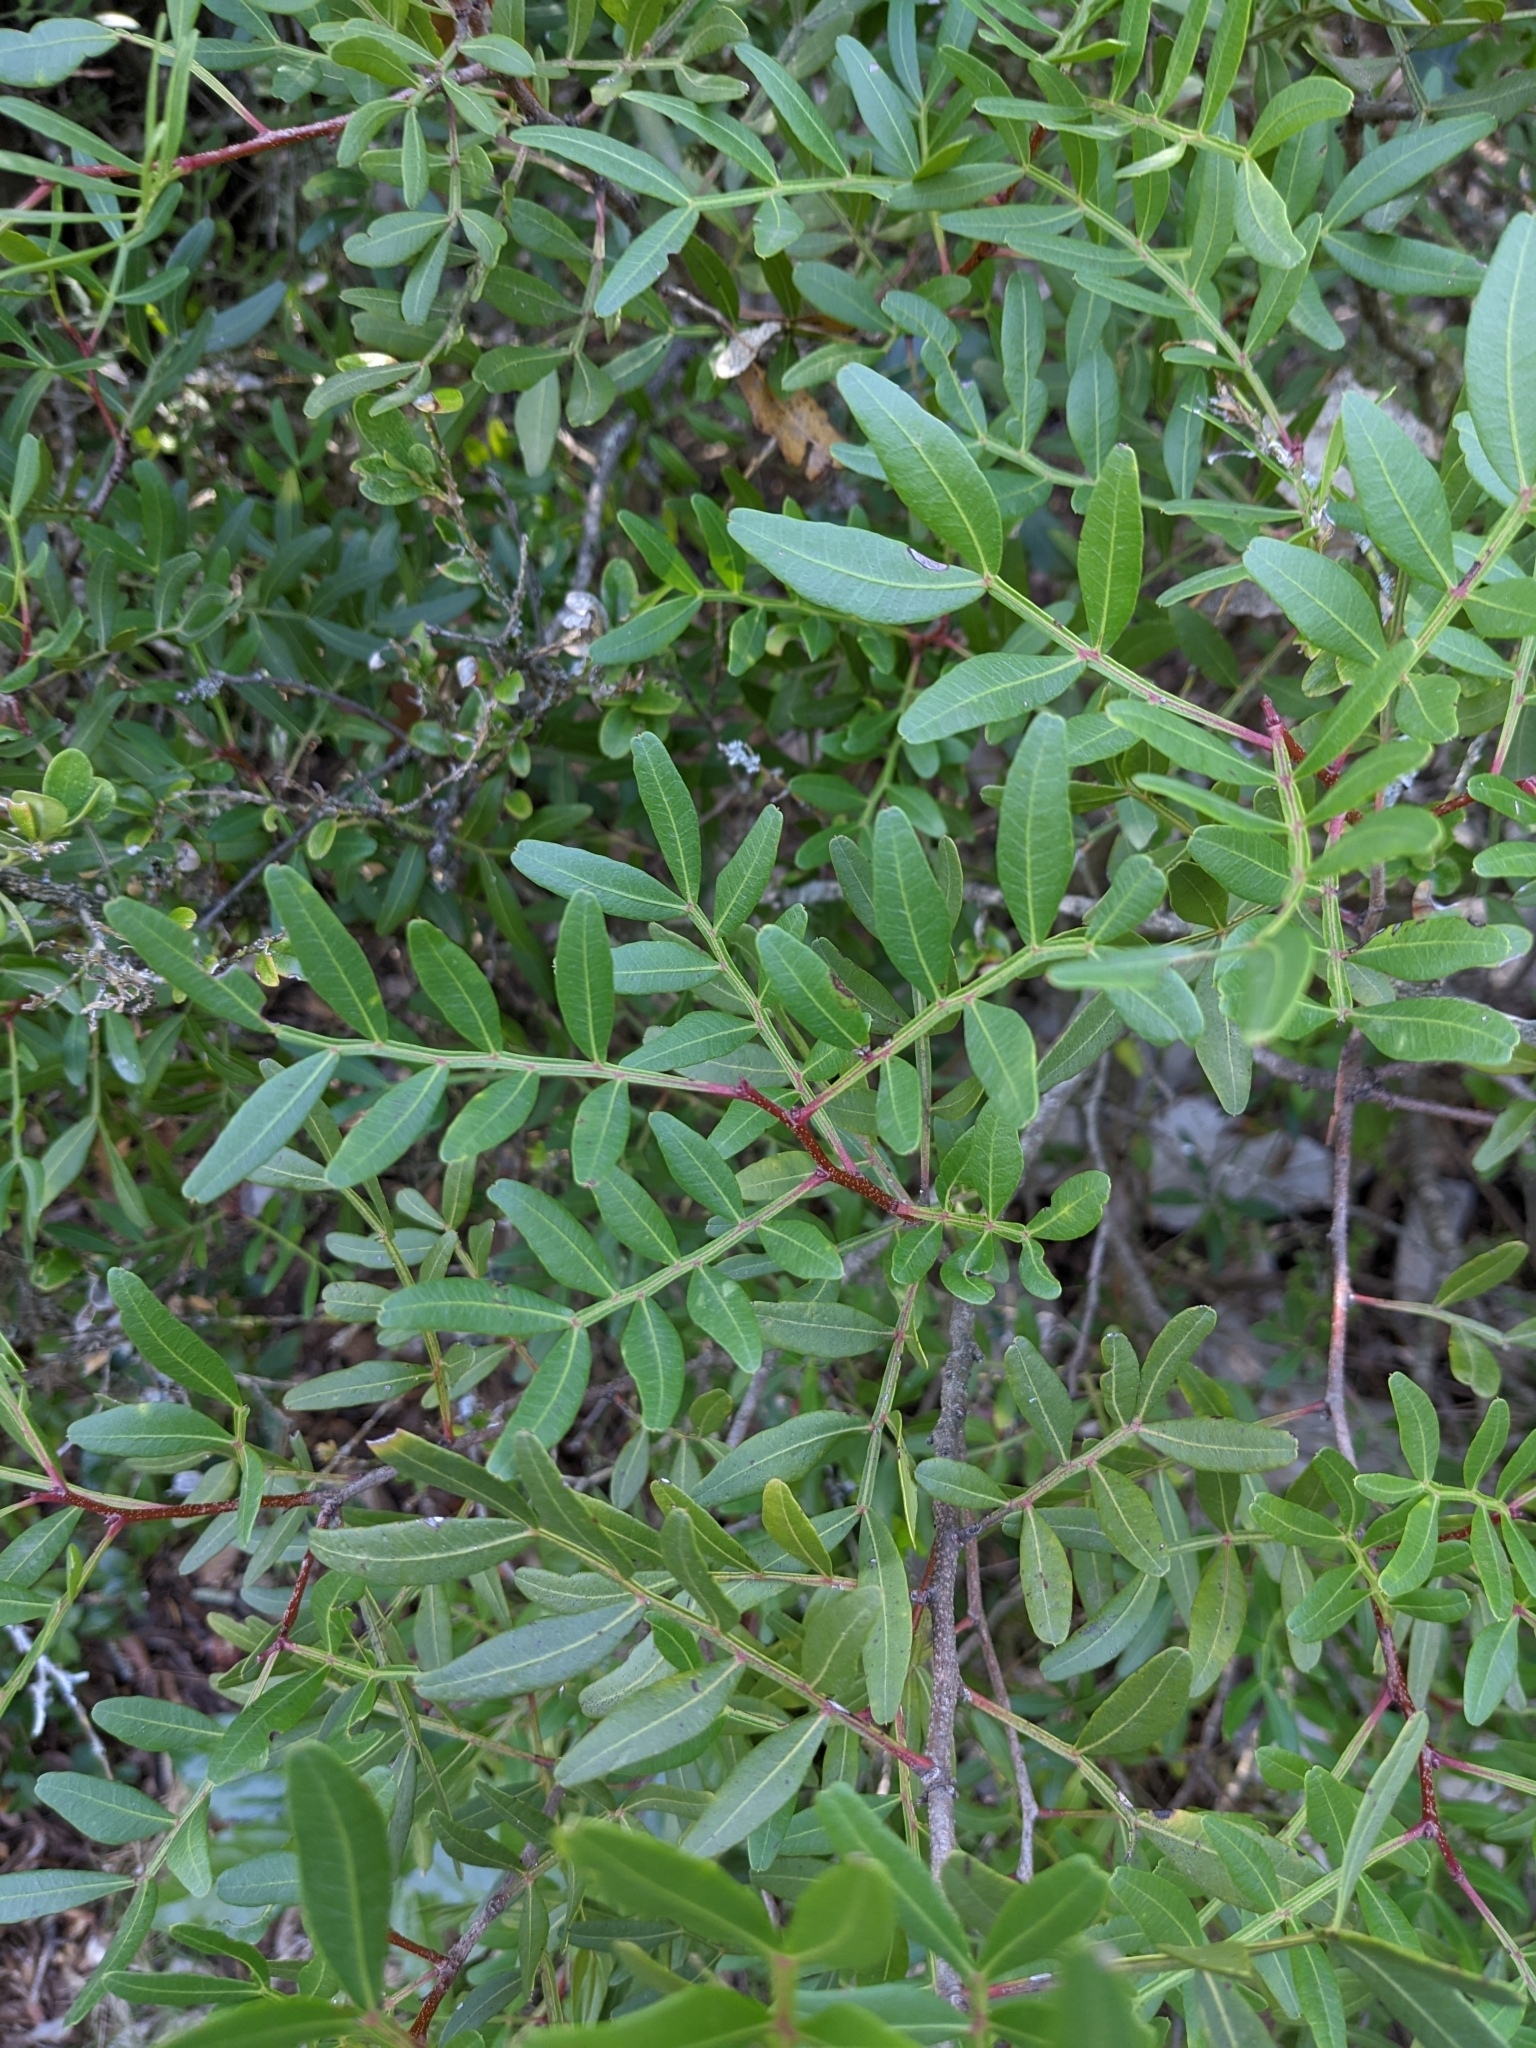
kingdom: Plantae
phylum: Tracheophyta
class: Magnoliopsida
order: Sapindales
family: Anacardiaceae
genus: Pistacia
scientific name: Pistacia lentiscus
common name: Lentisk
